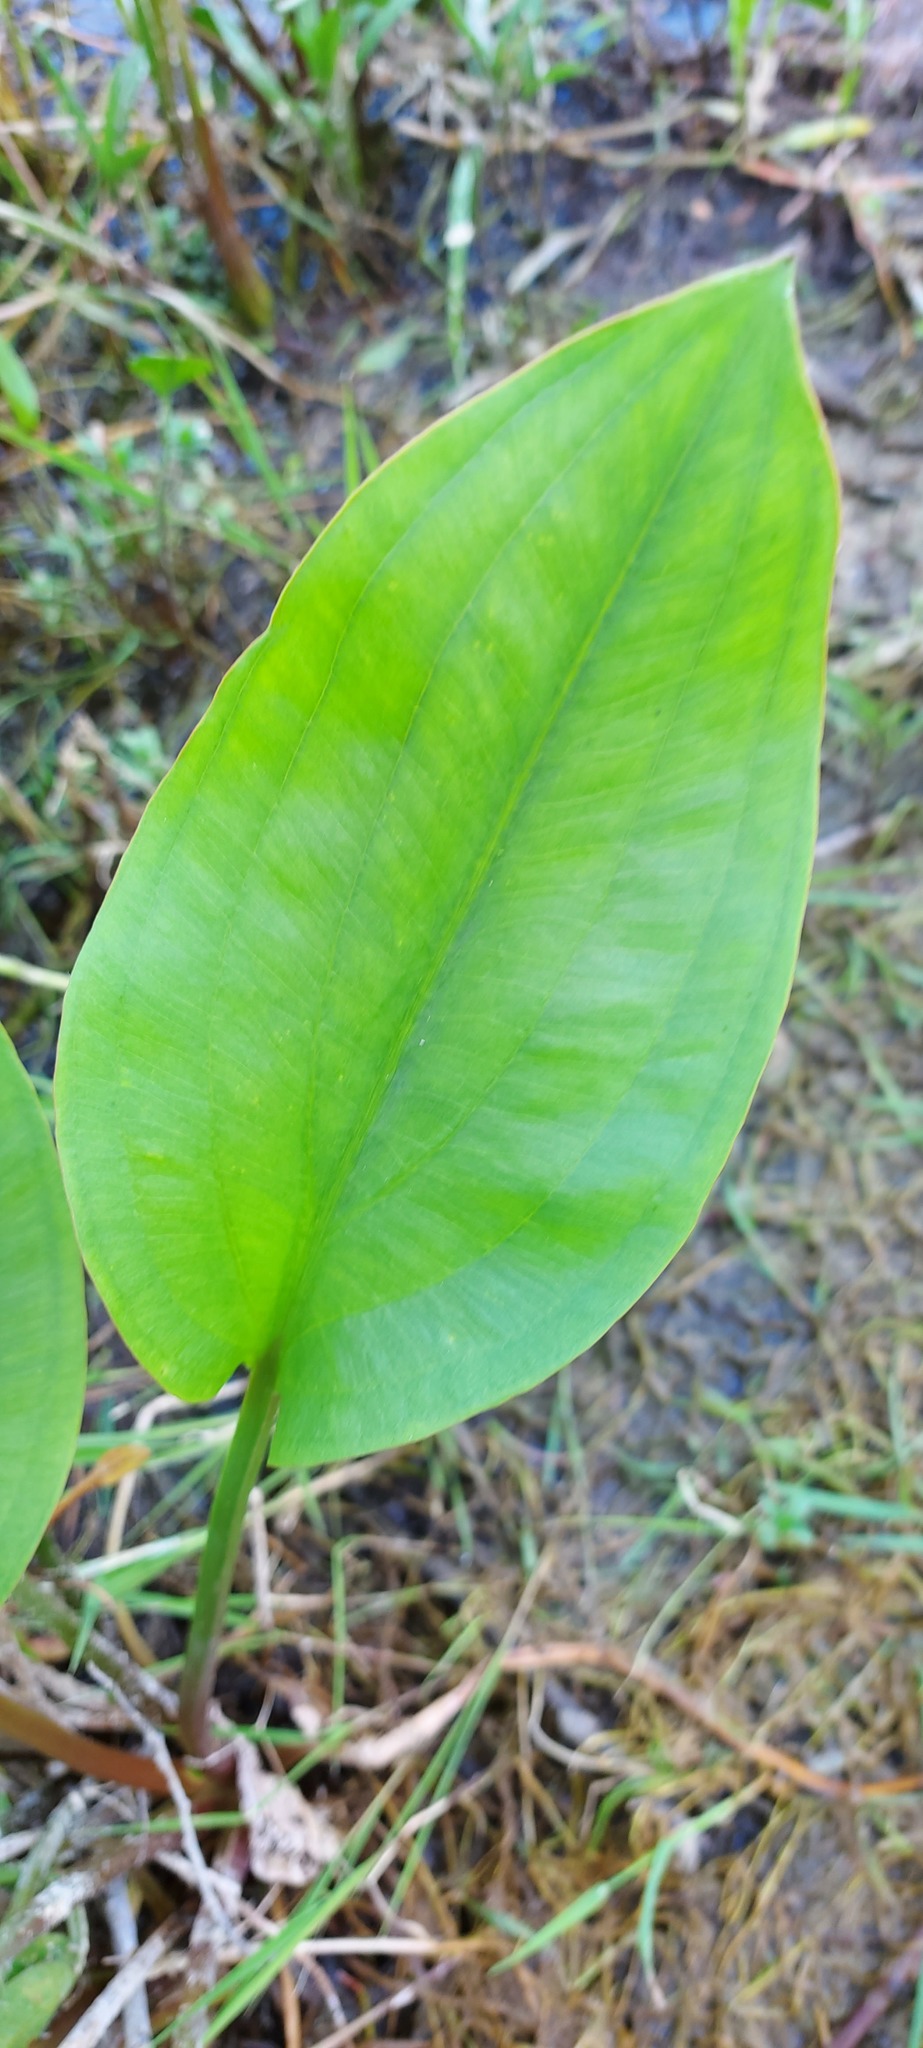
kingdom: Plantae
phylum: Tracheophyta
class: Liliopsida
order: Alismatales
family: Alismataceae
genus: Alisma
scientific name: Alisma plantago-aquatica
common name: Water-plantain
